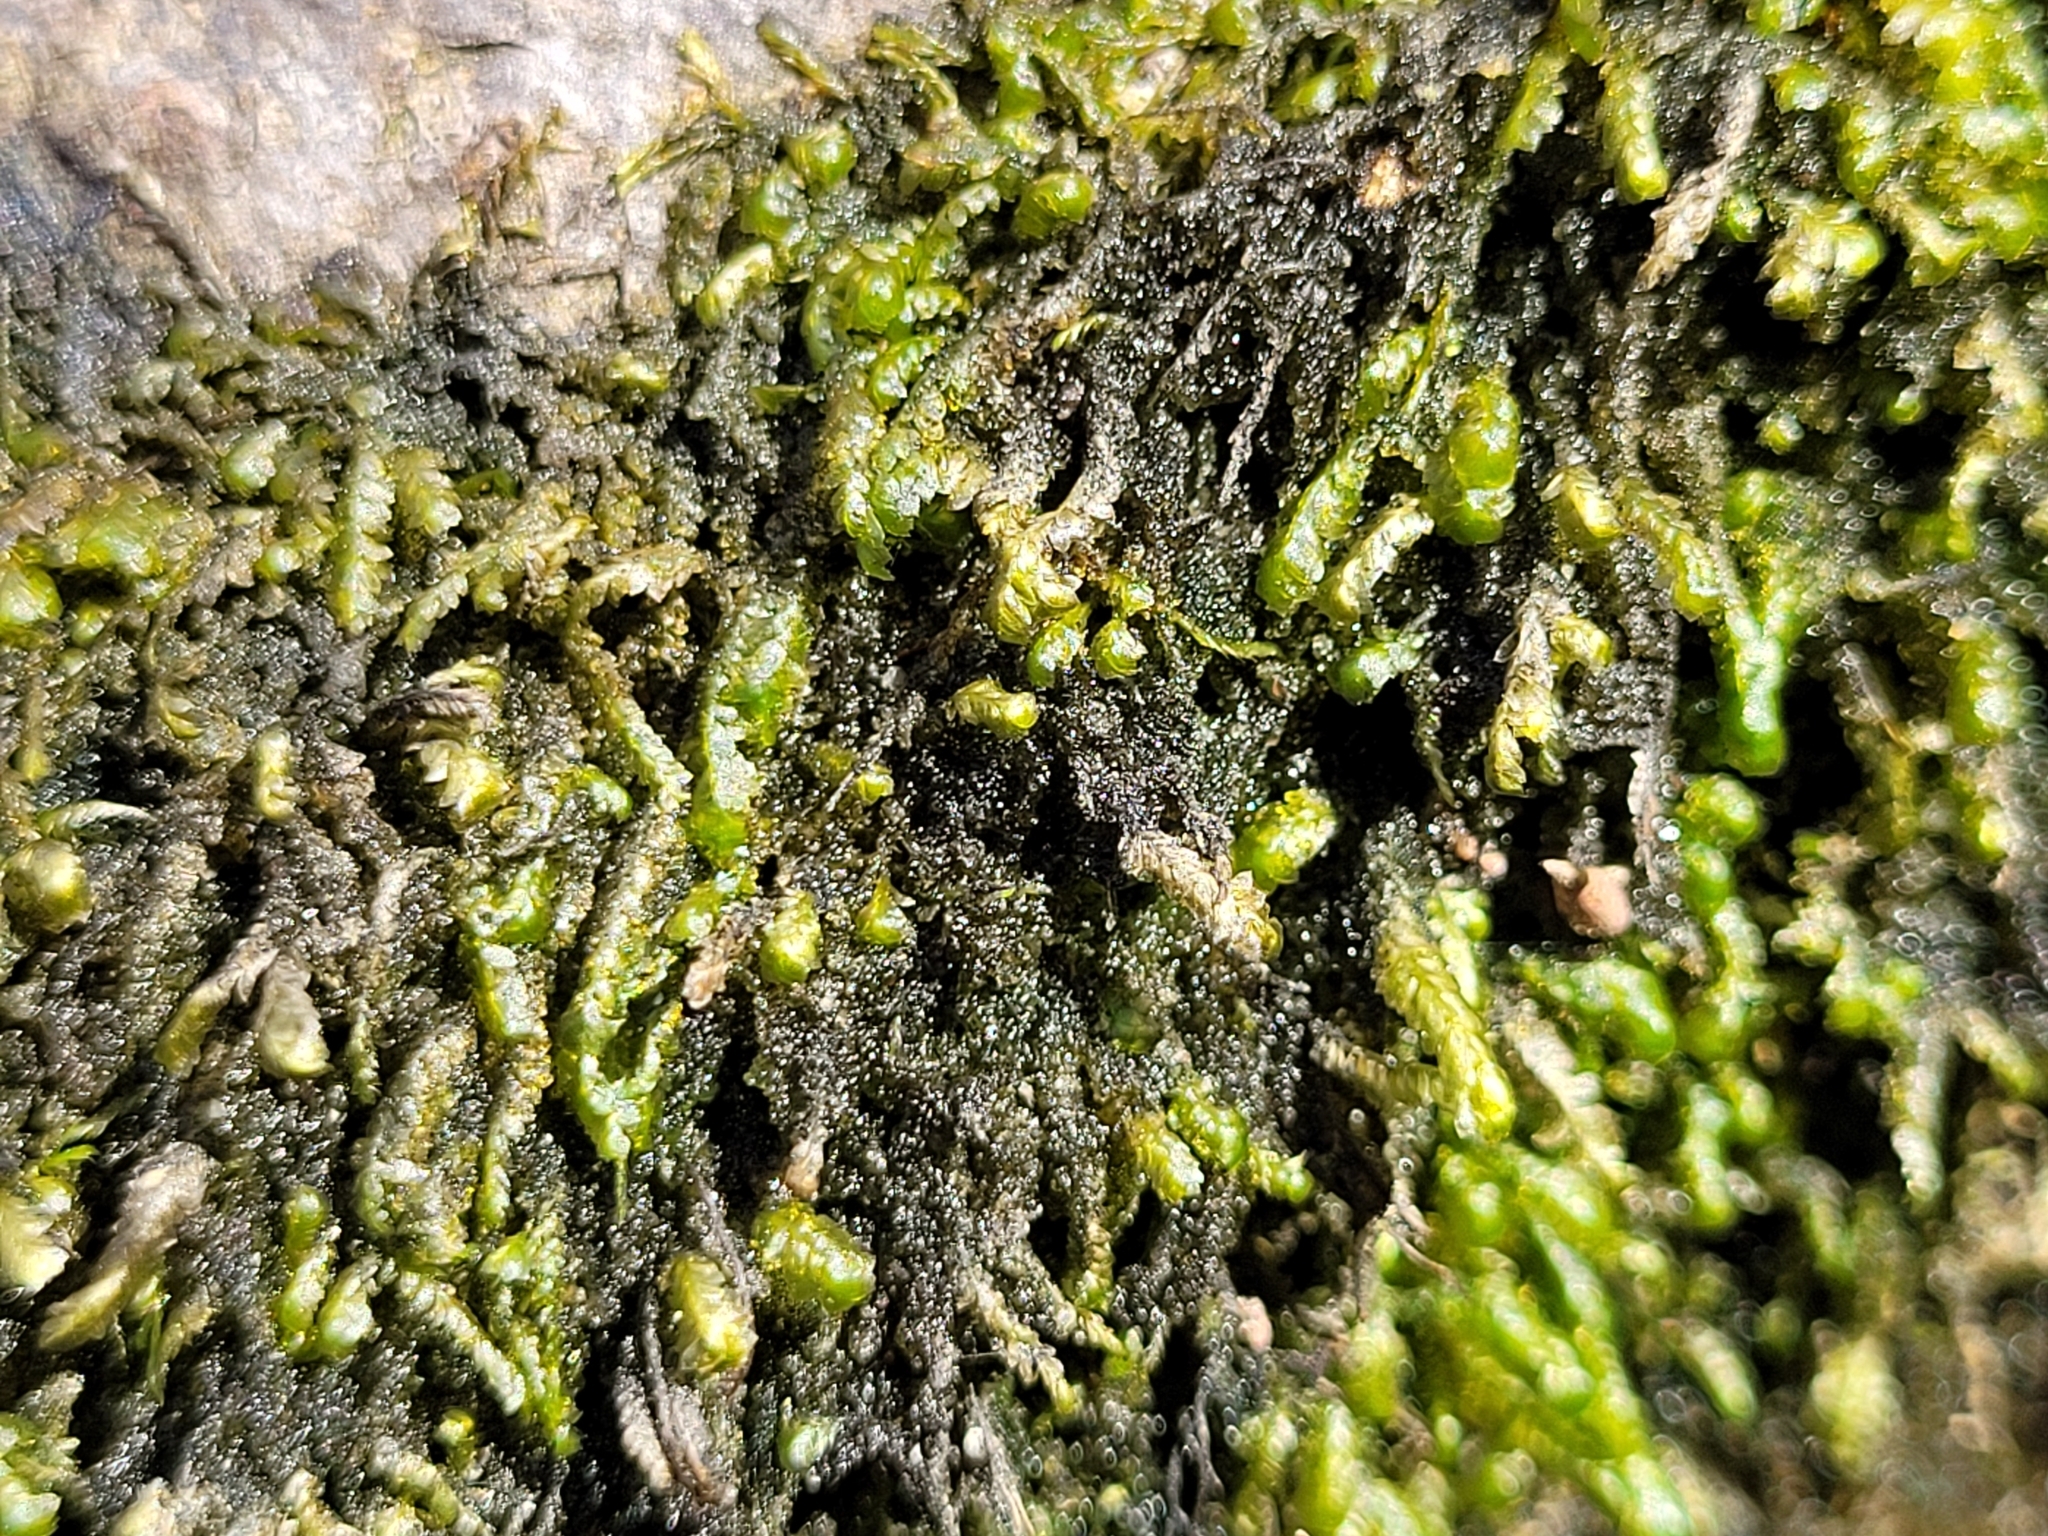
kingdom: Plantae
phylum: Bryophyta
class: Bryopsida
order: Hypnales
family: Neckeraceae
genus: Homalia
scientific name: Homalia trichomanoides
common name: Lime homalia moss
